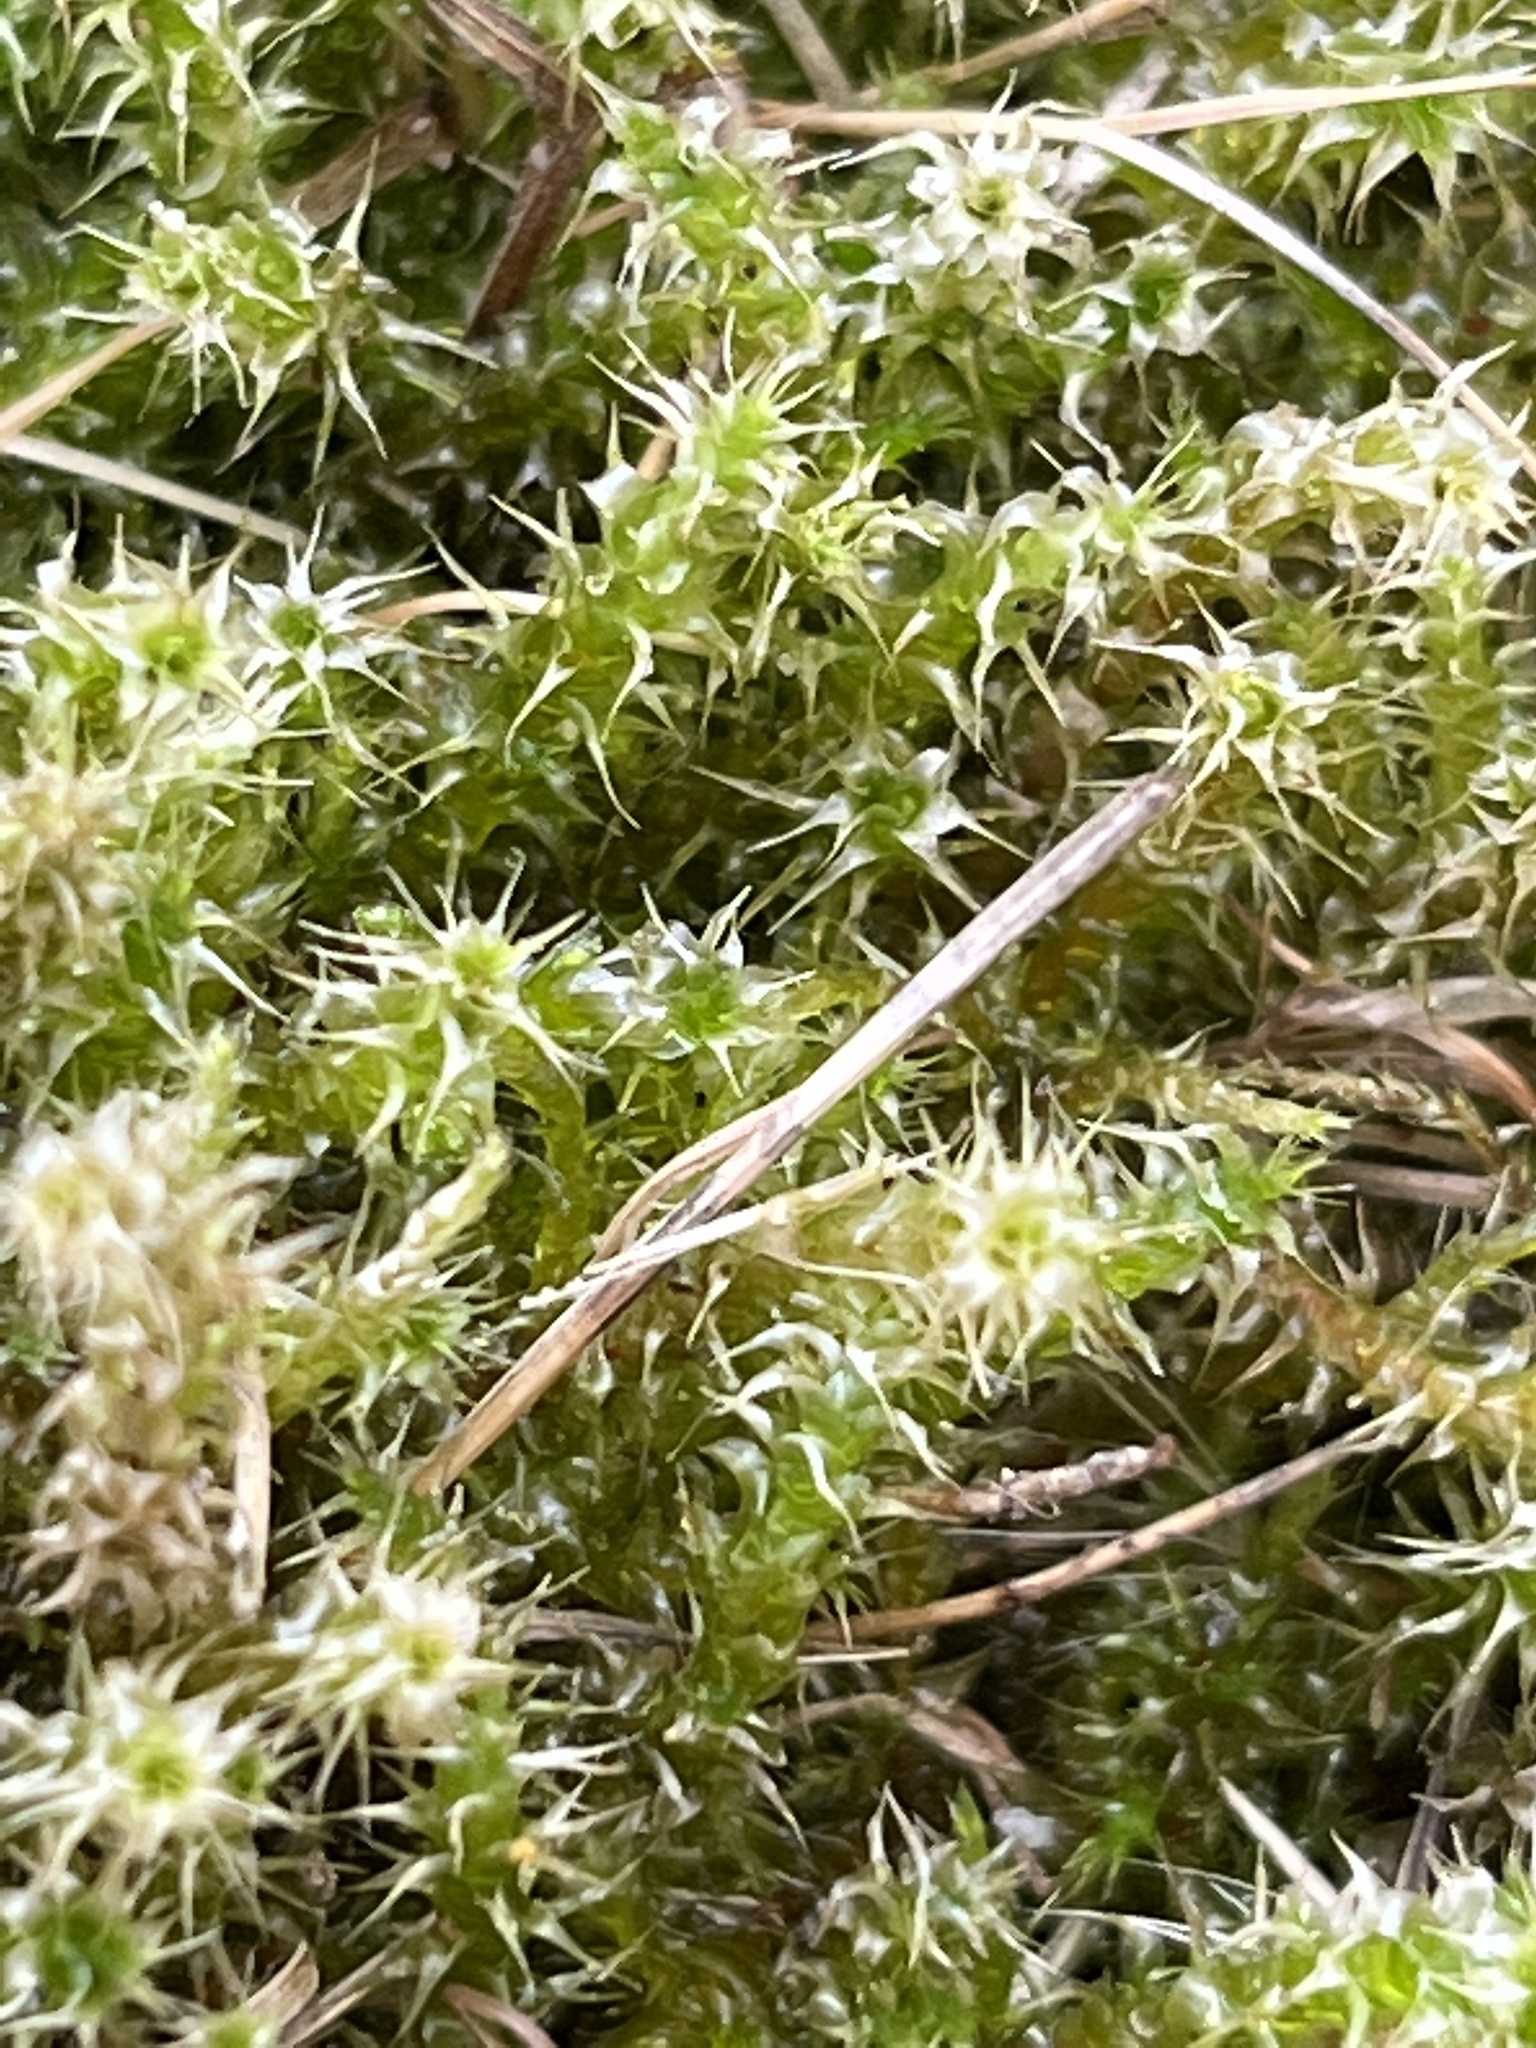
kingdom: Plantae
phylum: Bryophyta
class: Bryopsida
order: Hypnales
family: Hylocomiaceae
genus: Rhytidiadelphus
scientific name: Rhytidiadelphus squarrosus
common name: Springy turf-moss
